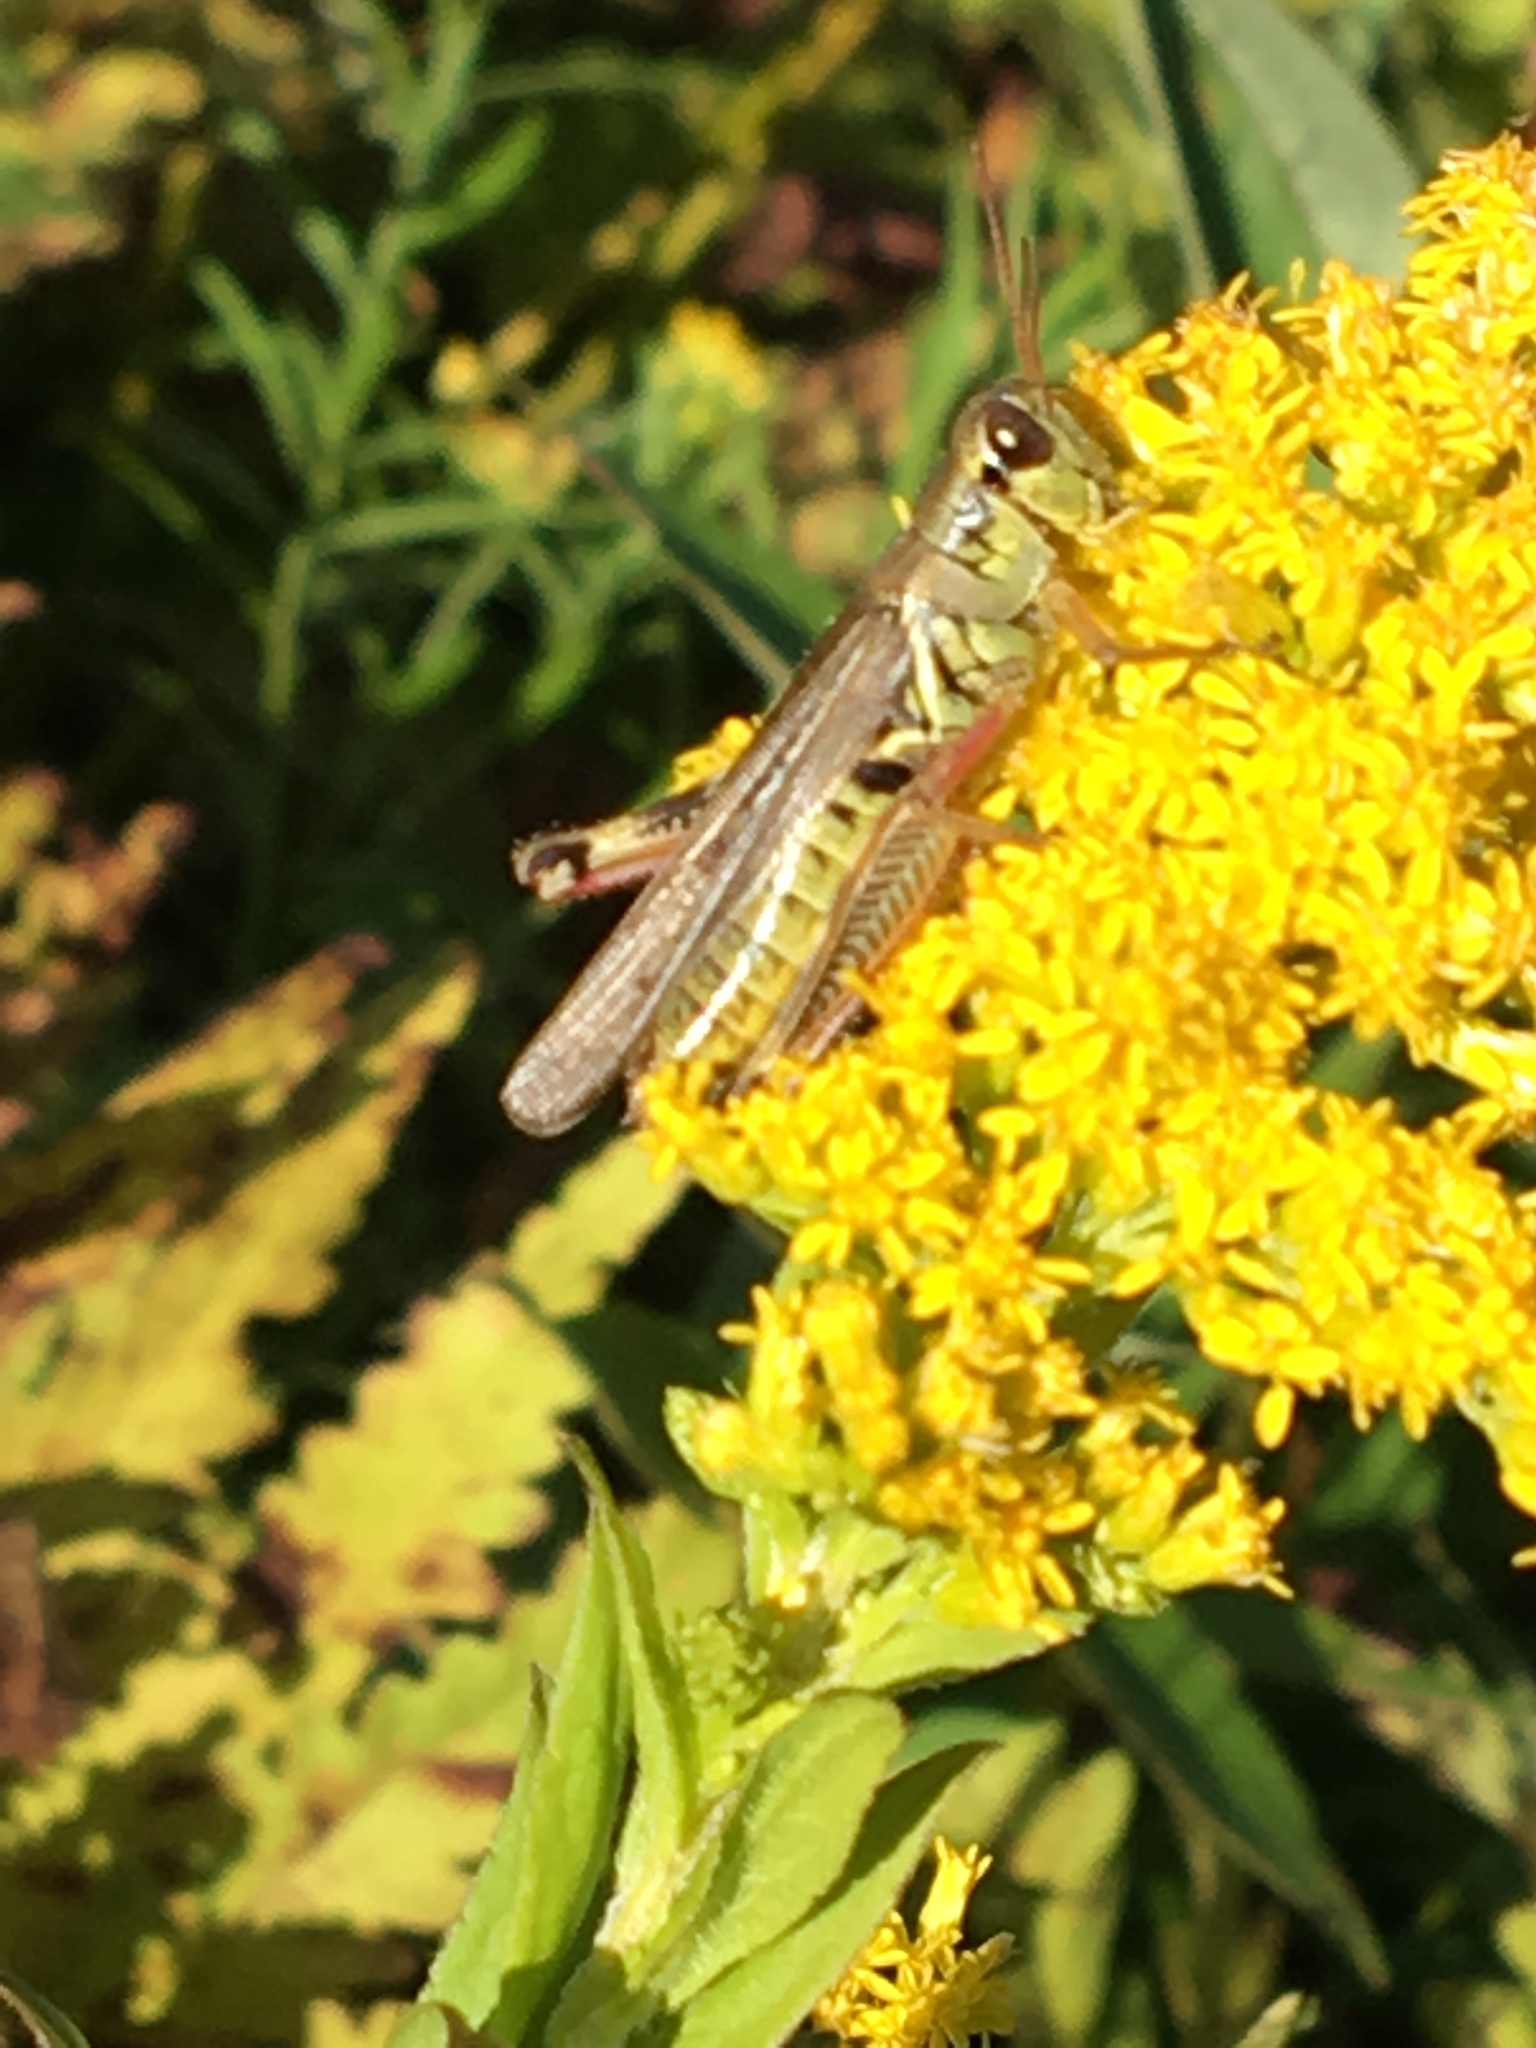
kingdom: Animalia
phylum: Arthropoda
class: Insecta
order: Orthoptera
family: Acrididae
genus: Melanoplus
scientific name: Melanoplus femurrubrum
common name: Red-legged grasshopper
